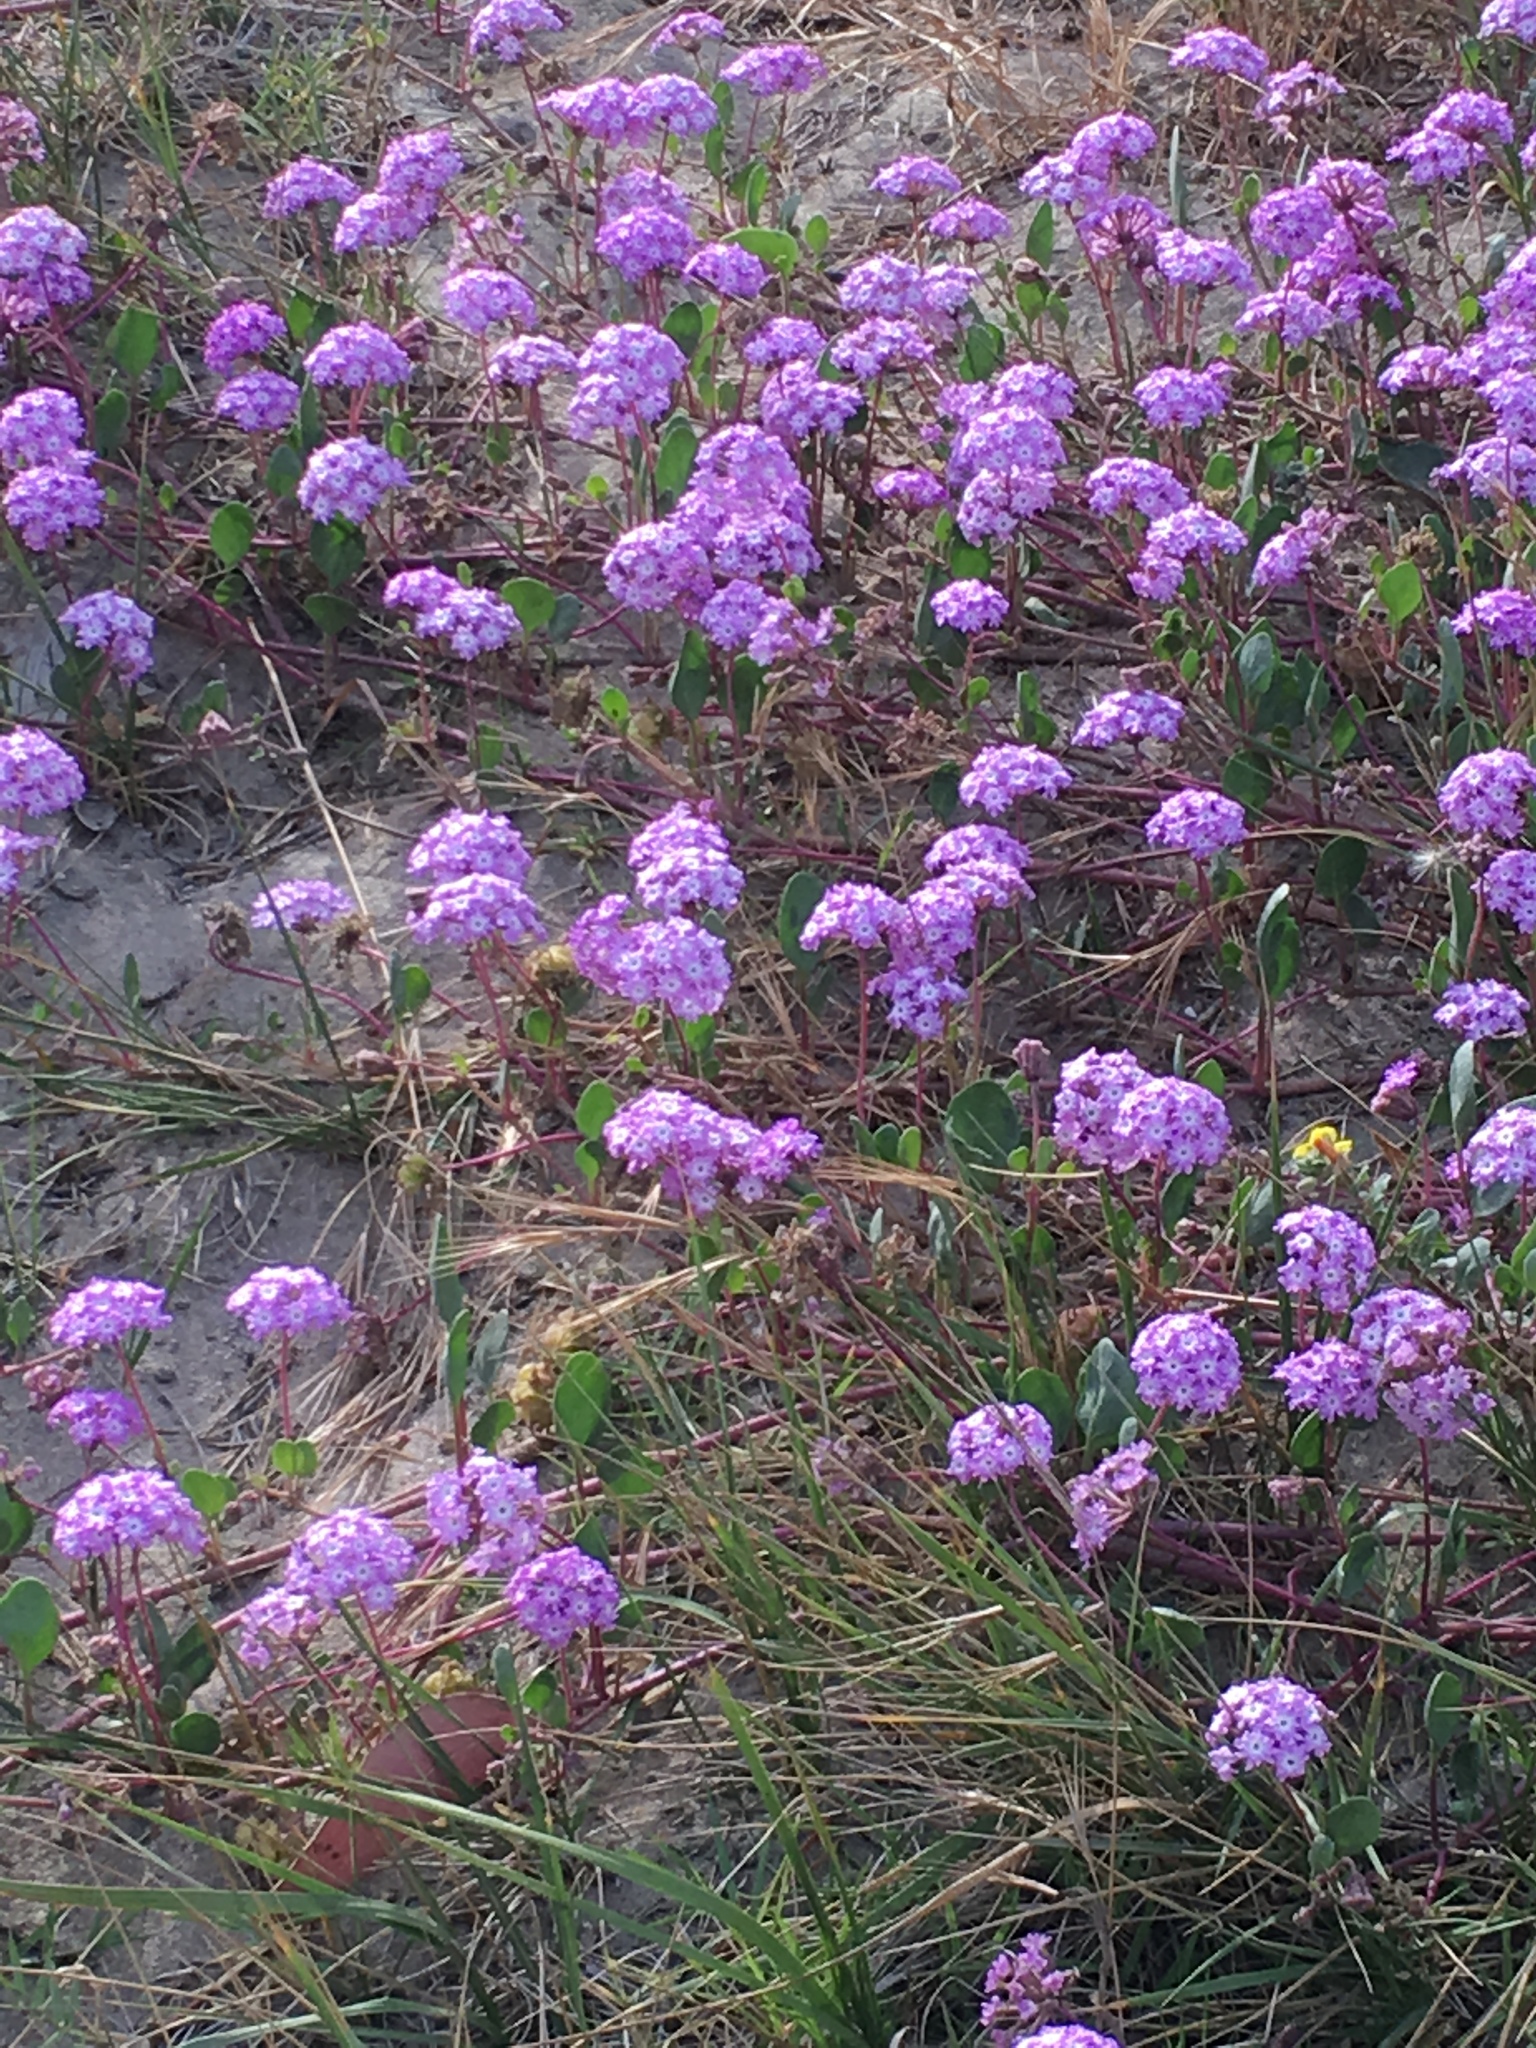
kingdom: Plantae
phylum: Tracheophyta
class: Magnoliopsida
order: Caryophyllales
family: Nyctaginaceae
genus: Abronia
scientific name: Abronia umbellata
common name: Sand-verbena
